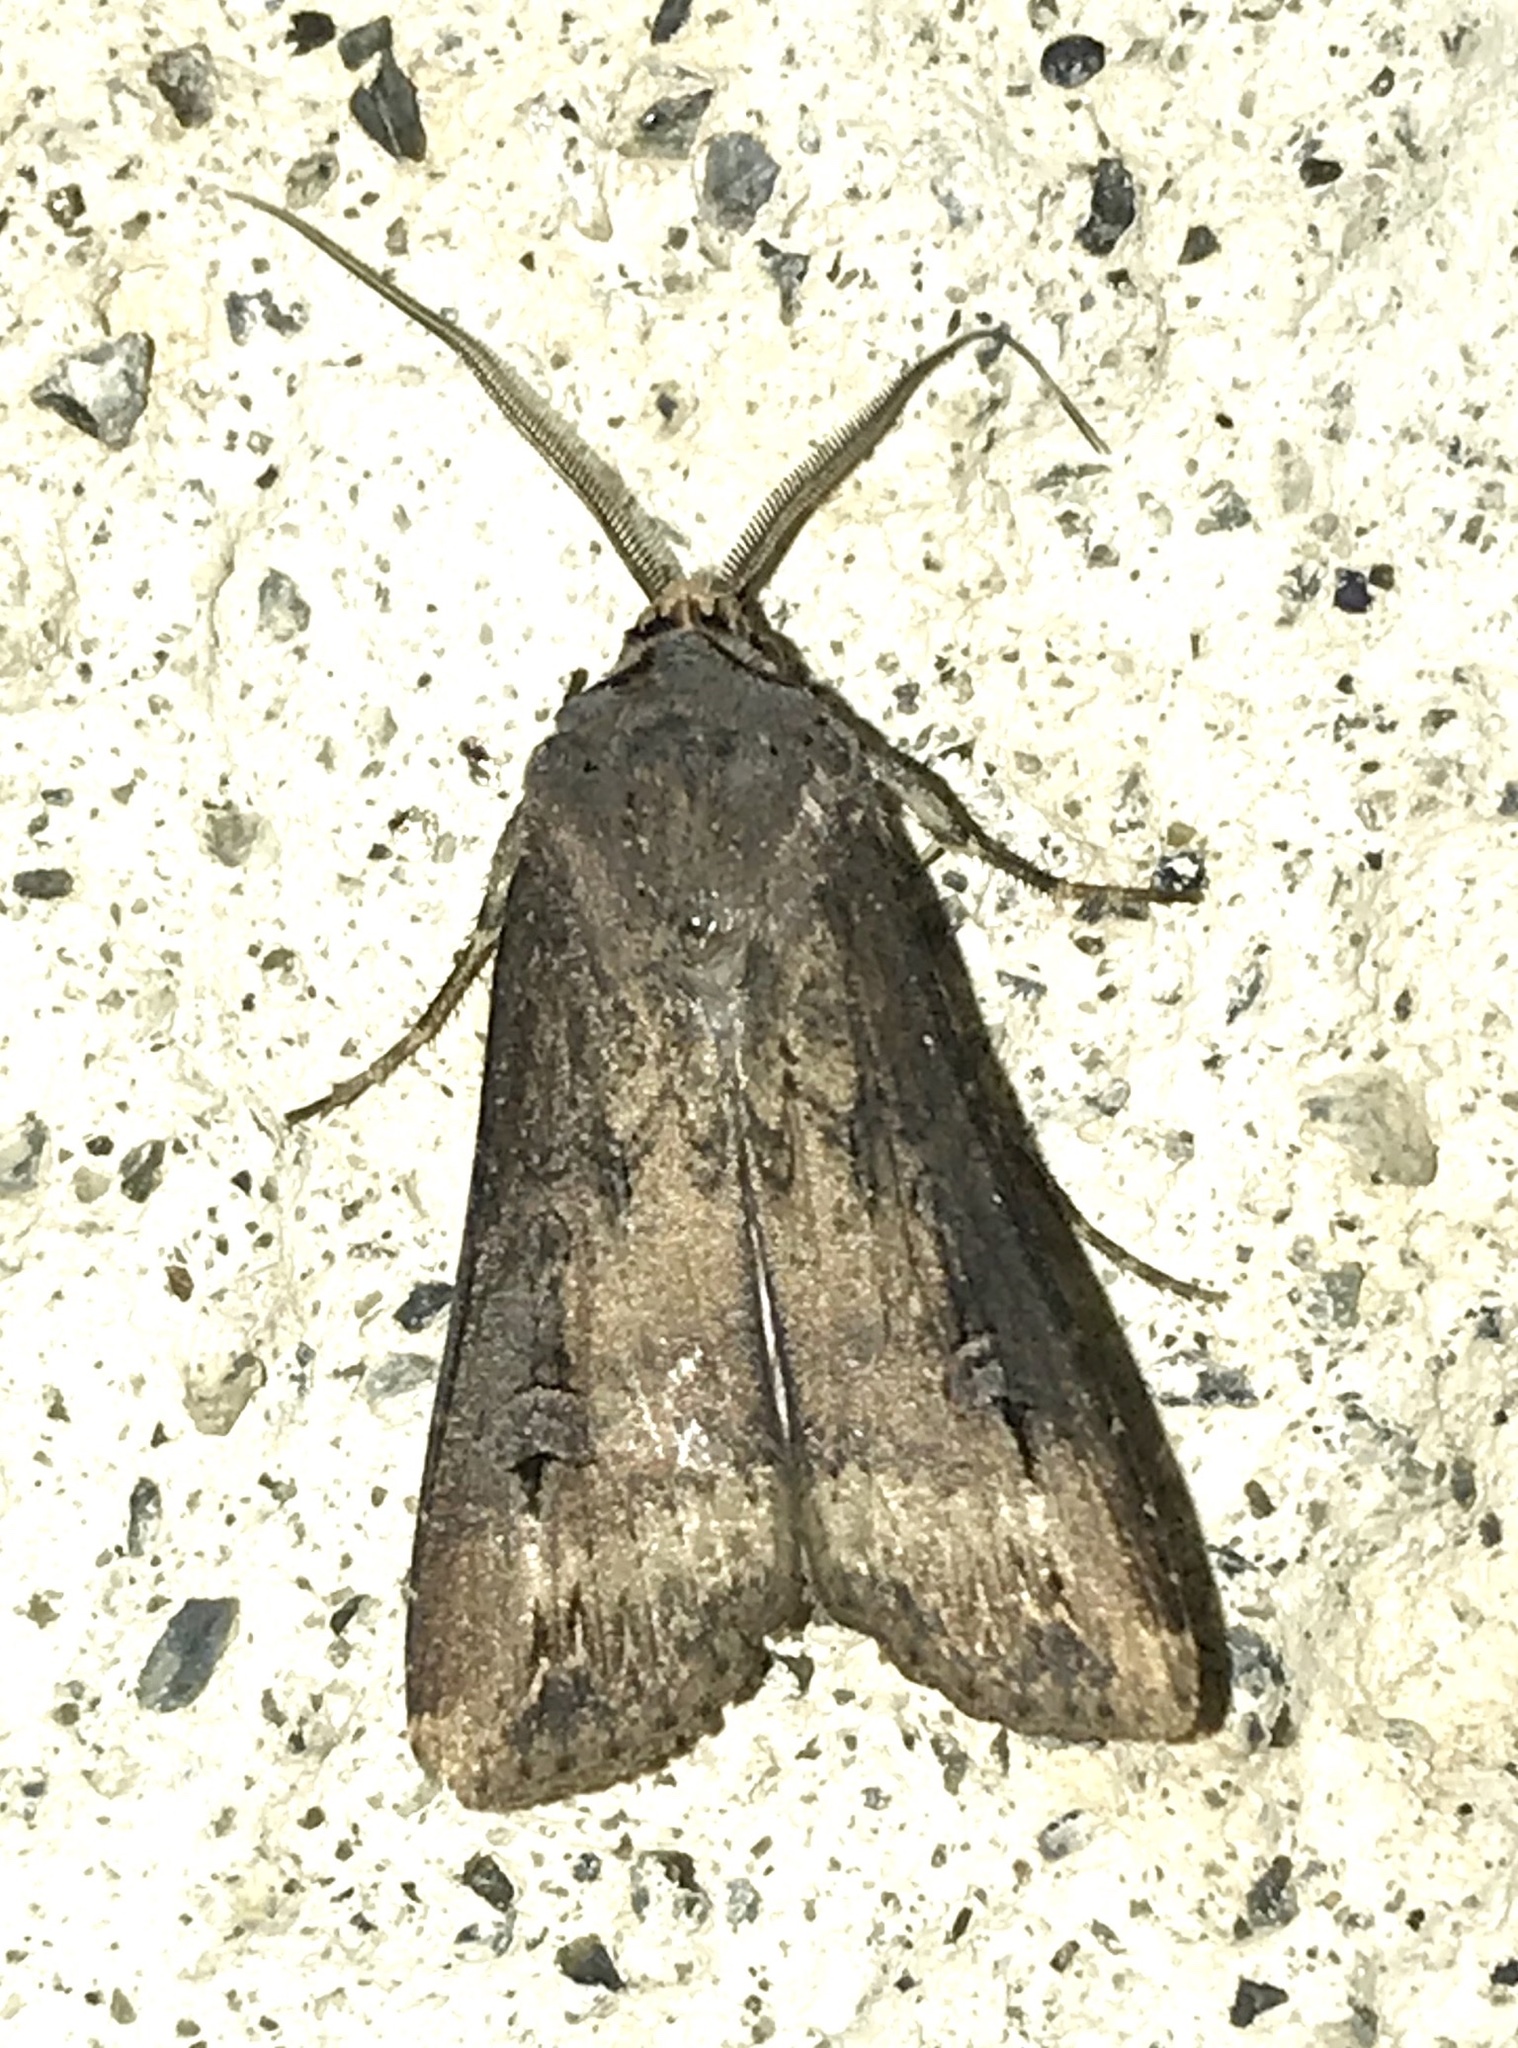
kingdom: Animalia
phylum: Arthropoda
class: Insecta
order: Lepidoptera
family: Noctuidae
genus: Agrotis
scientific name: Agrotis ipsilon
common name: Dark sword-grass
